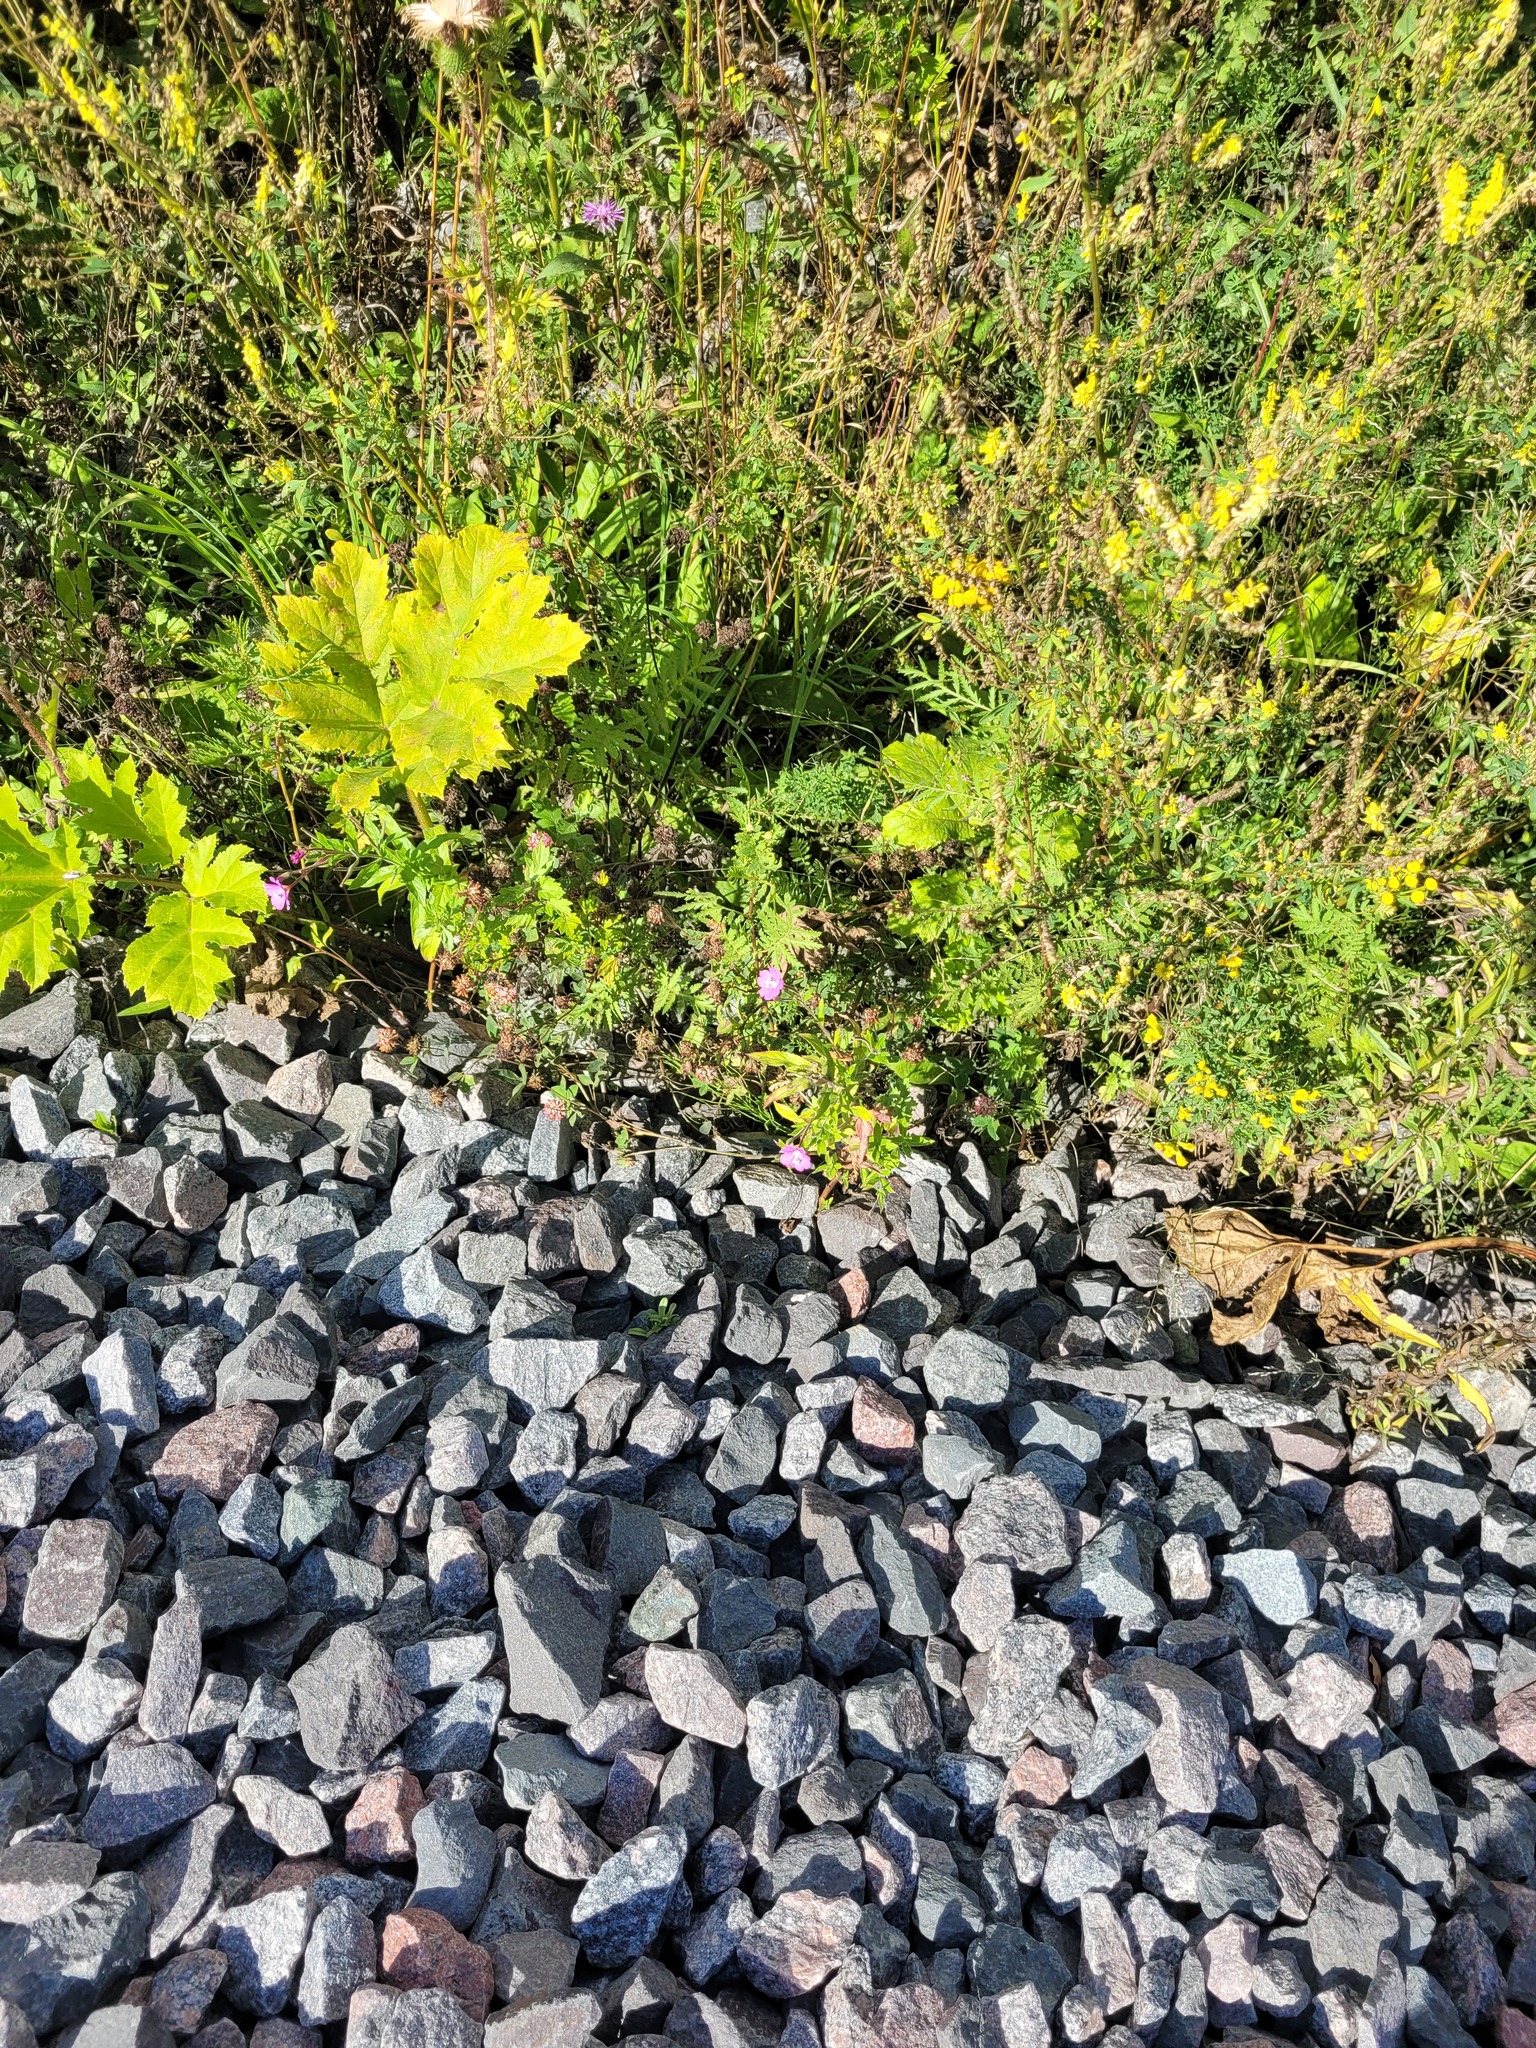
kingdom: Plantae
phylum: Tracheophyta
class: Magnoliopsida
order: Myrtales
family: Onagraceae
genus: Epilobium
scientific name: Epilobium hirsutum
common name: Great willowherb
